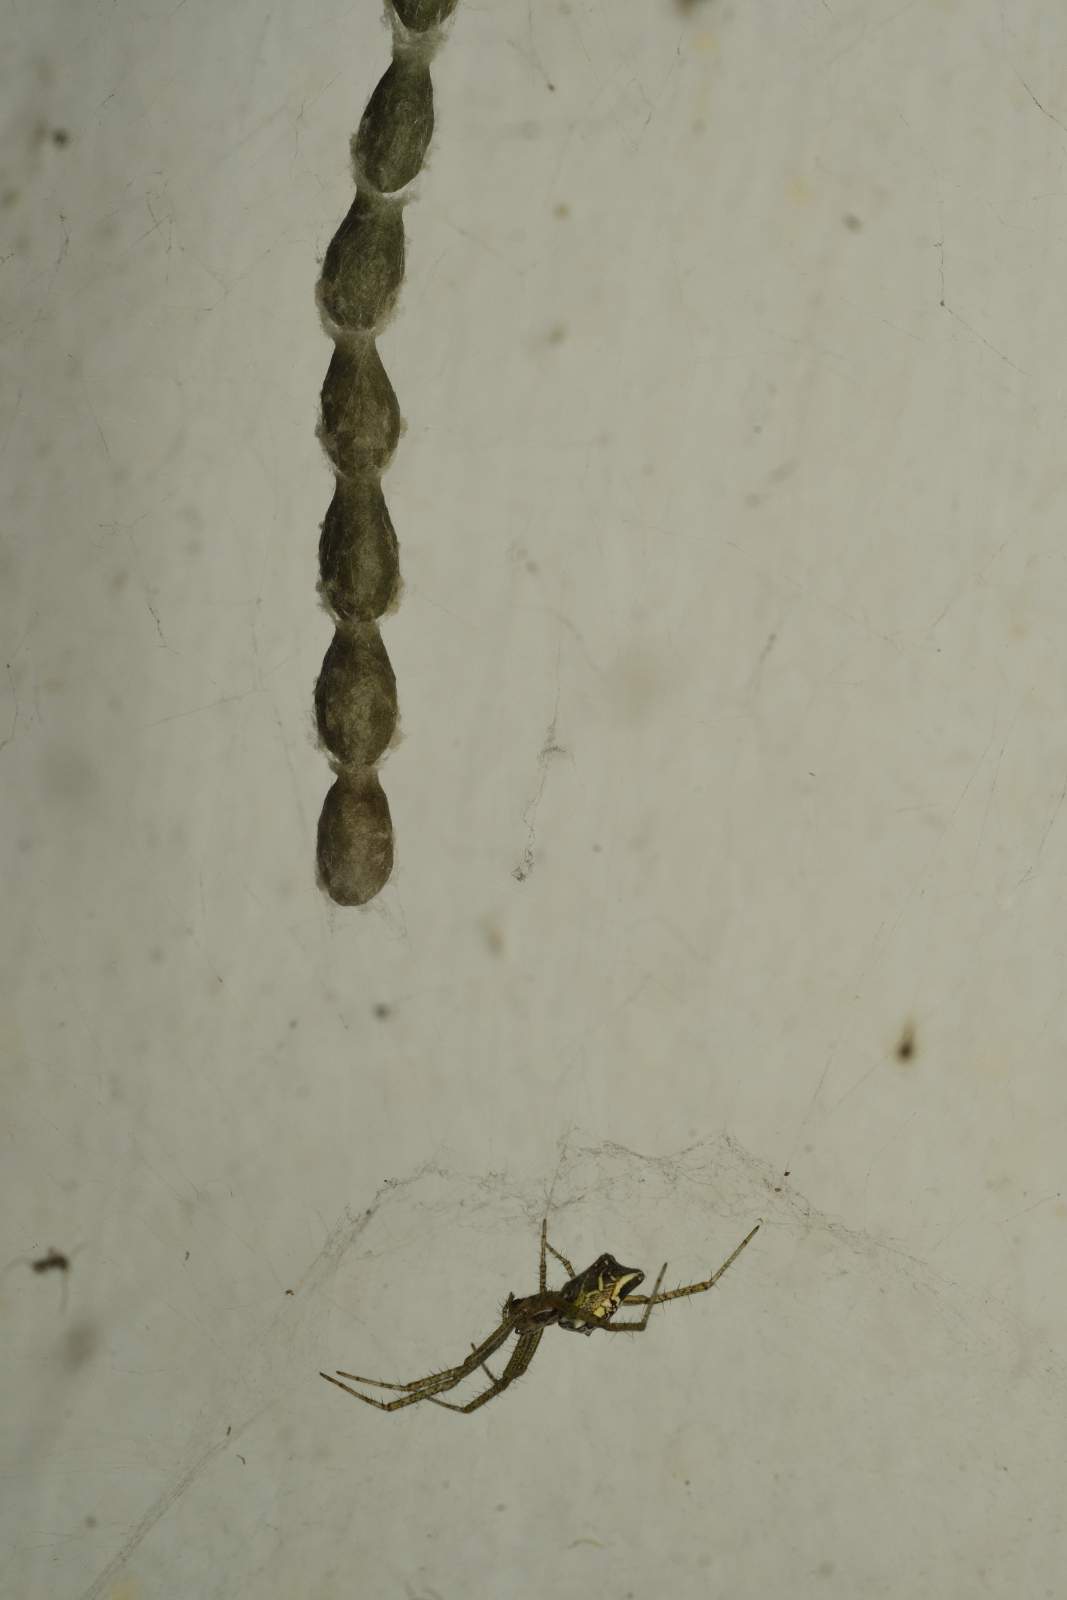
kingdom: Animalia
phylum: Arthropoda
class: Arachnida
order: Araneae
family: Araneidae
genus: Cyrtophora
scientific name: Cyrtophora cicatrosa
